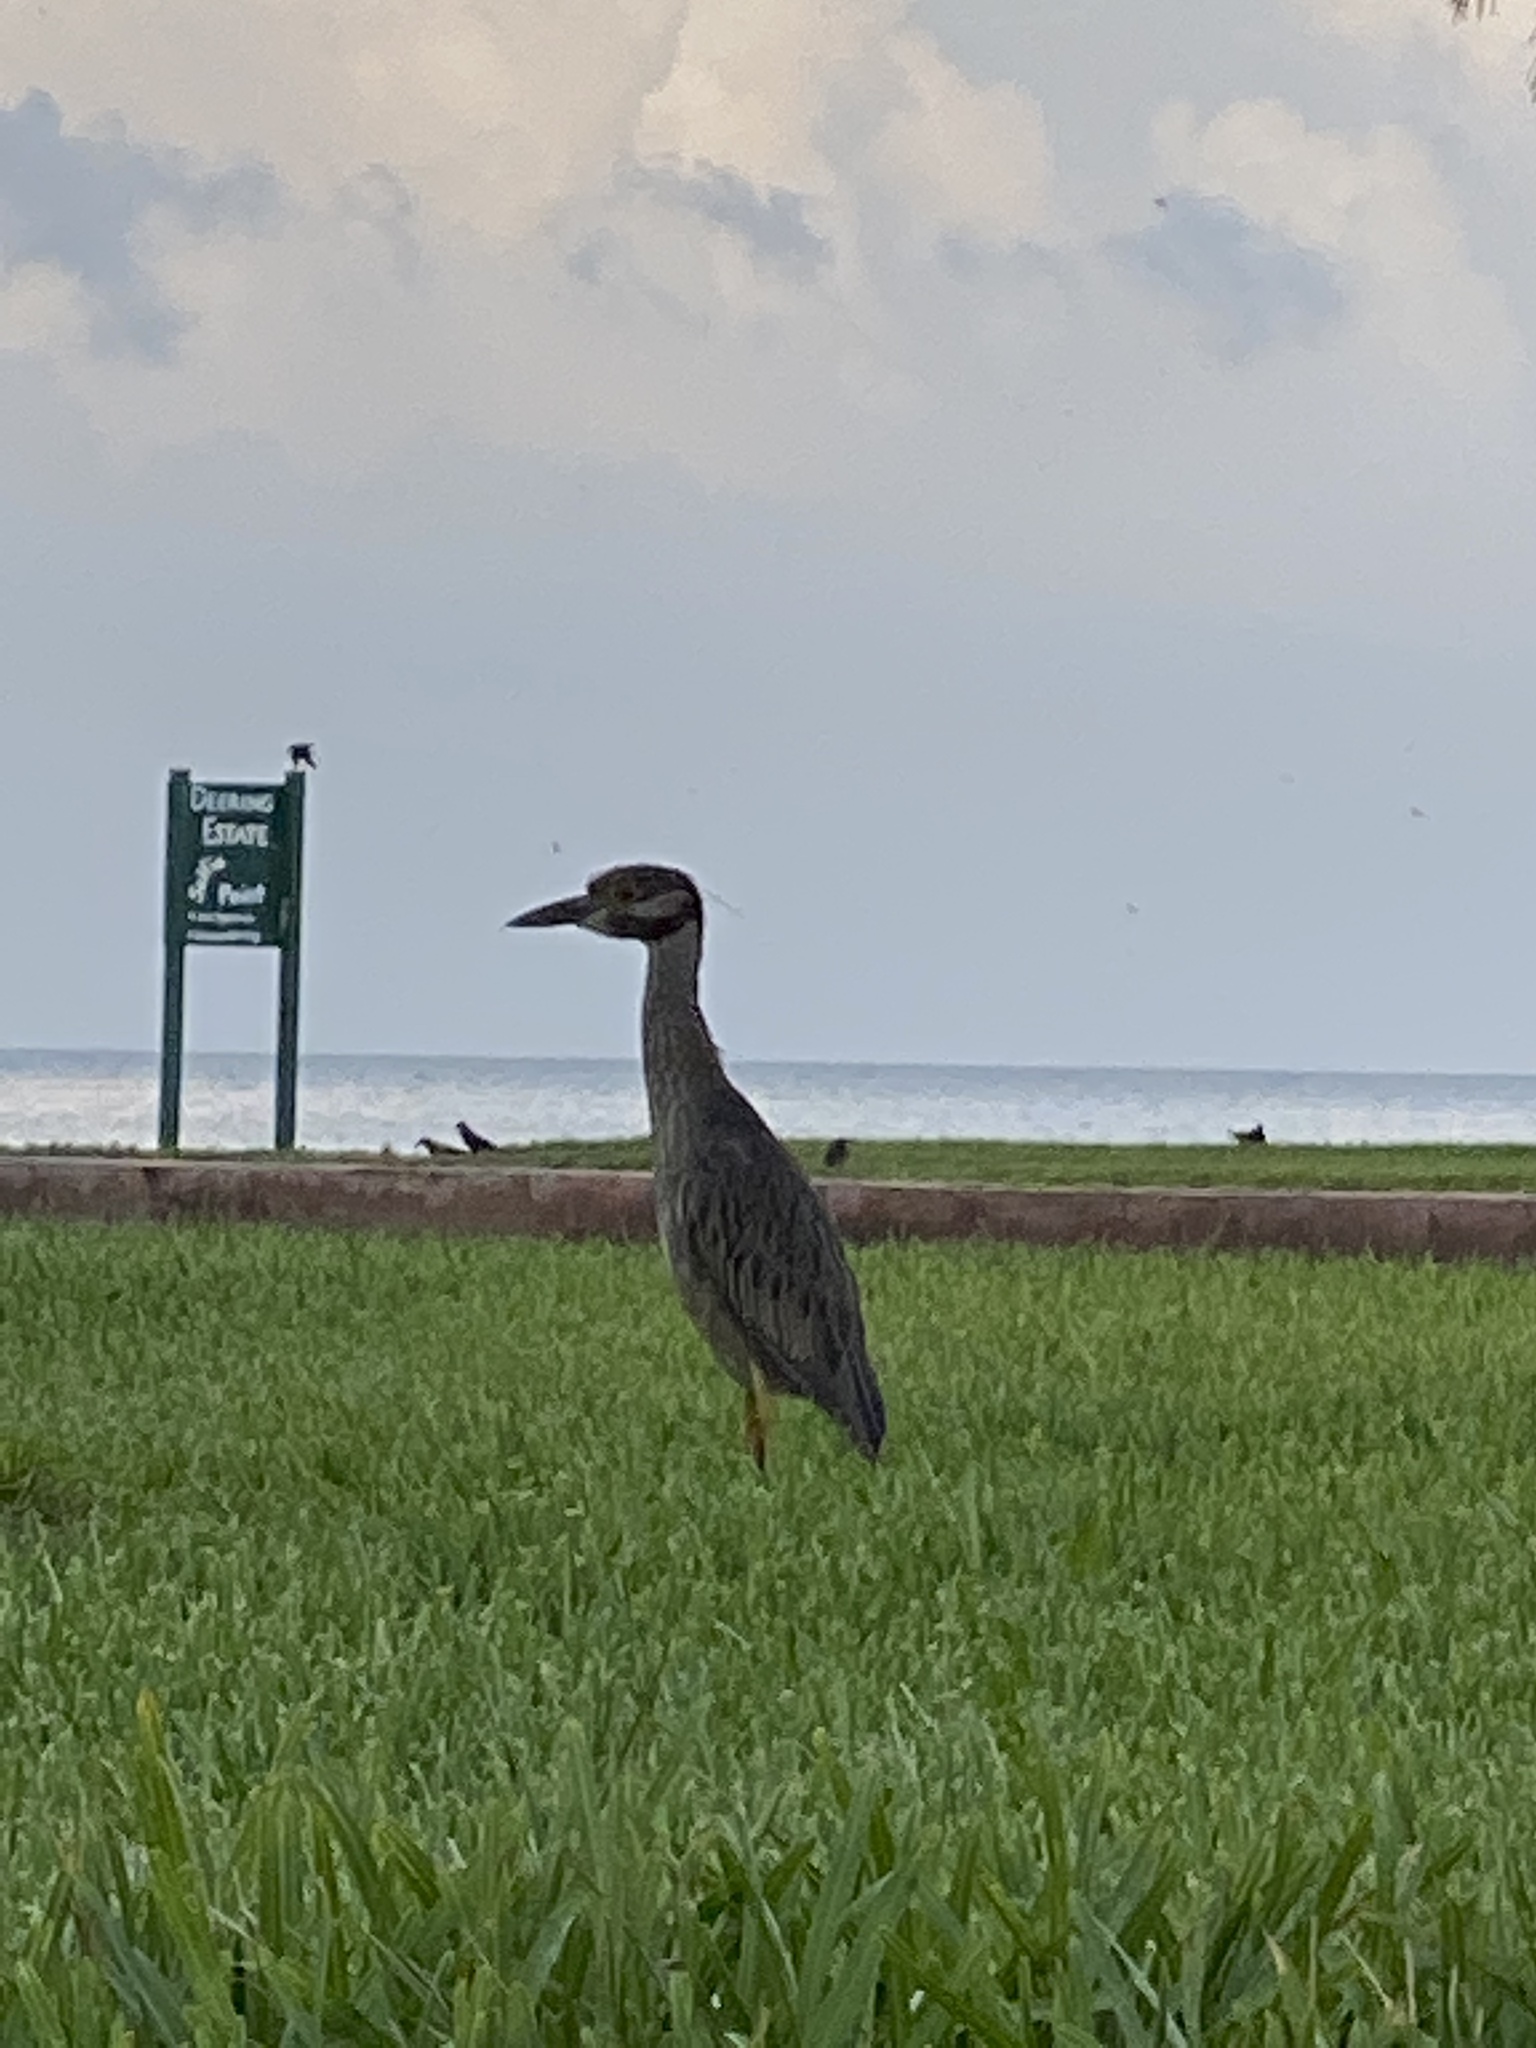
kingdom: Animalia
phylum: Chordata
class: Aves
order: Pelecaniformes
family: Ardeidae
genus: Nyctanassa
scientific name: Nyctanassa violacea
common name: Yellow-crowned night heron
